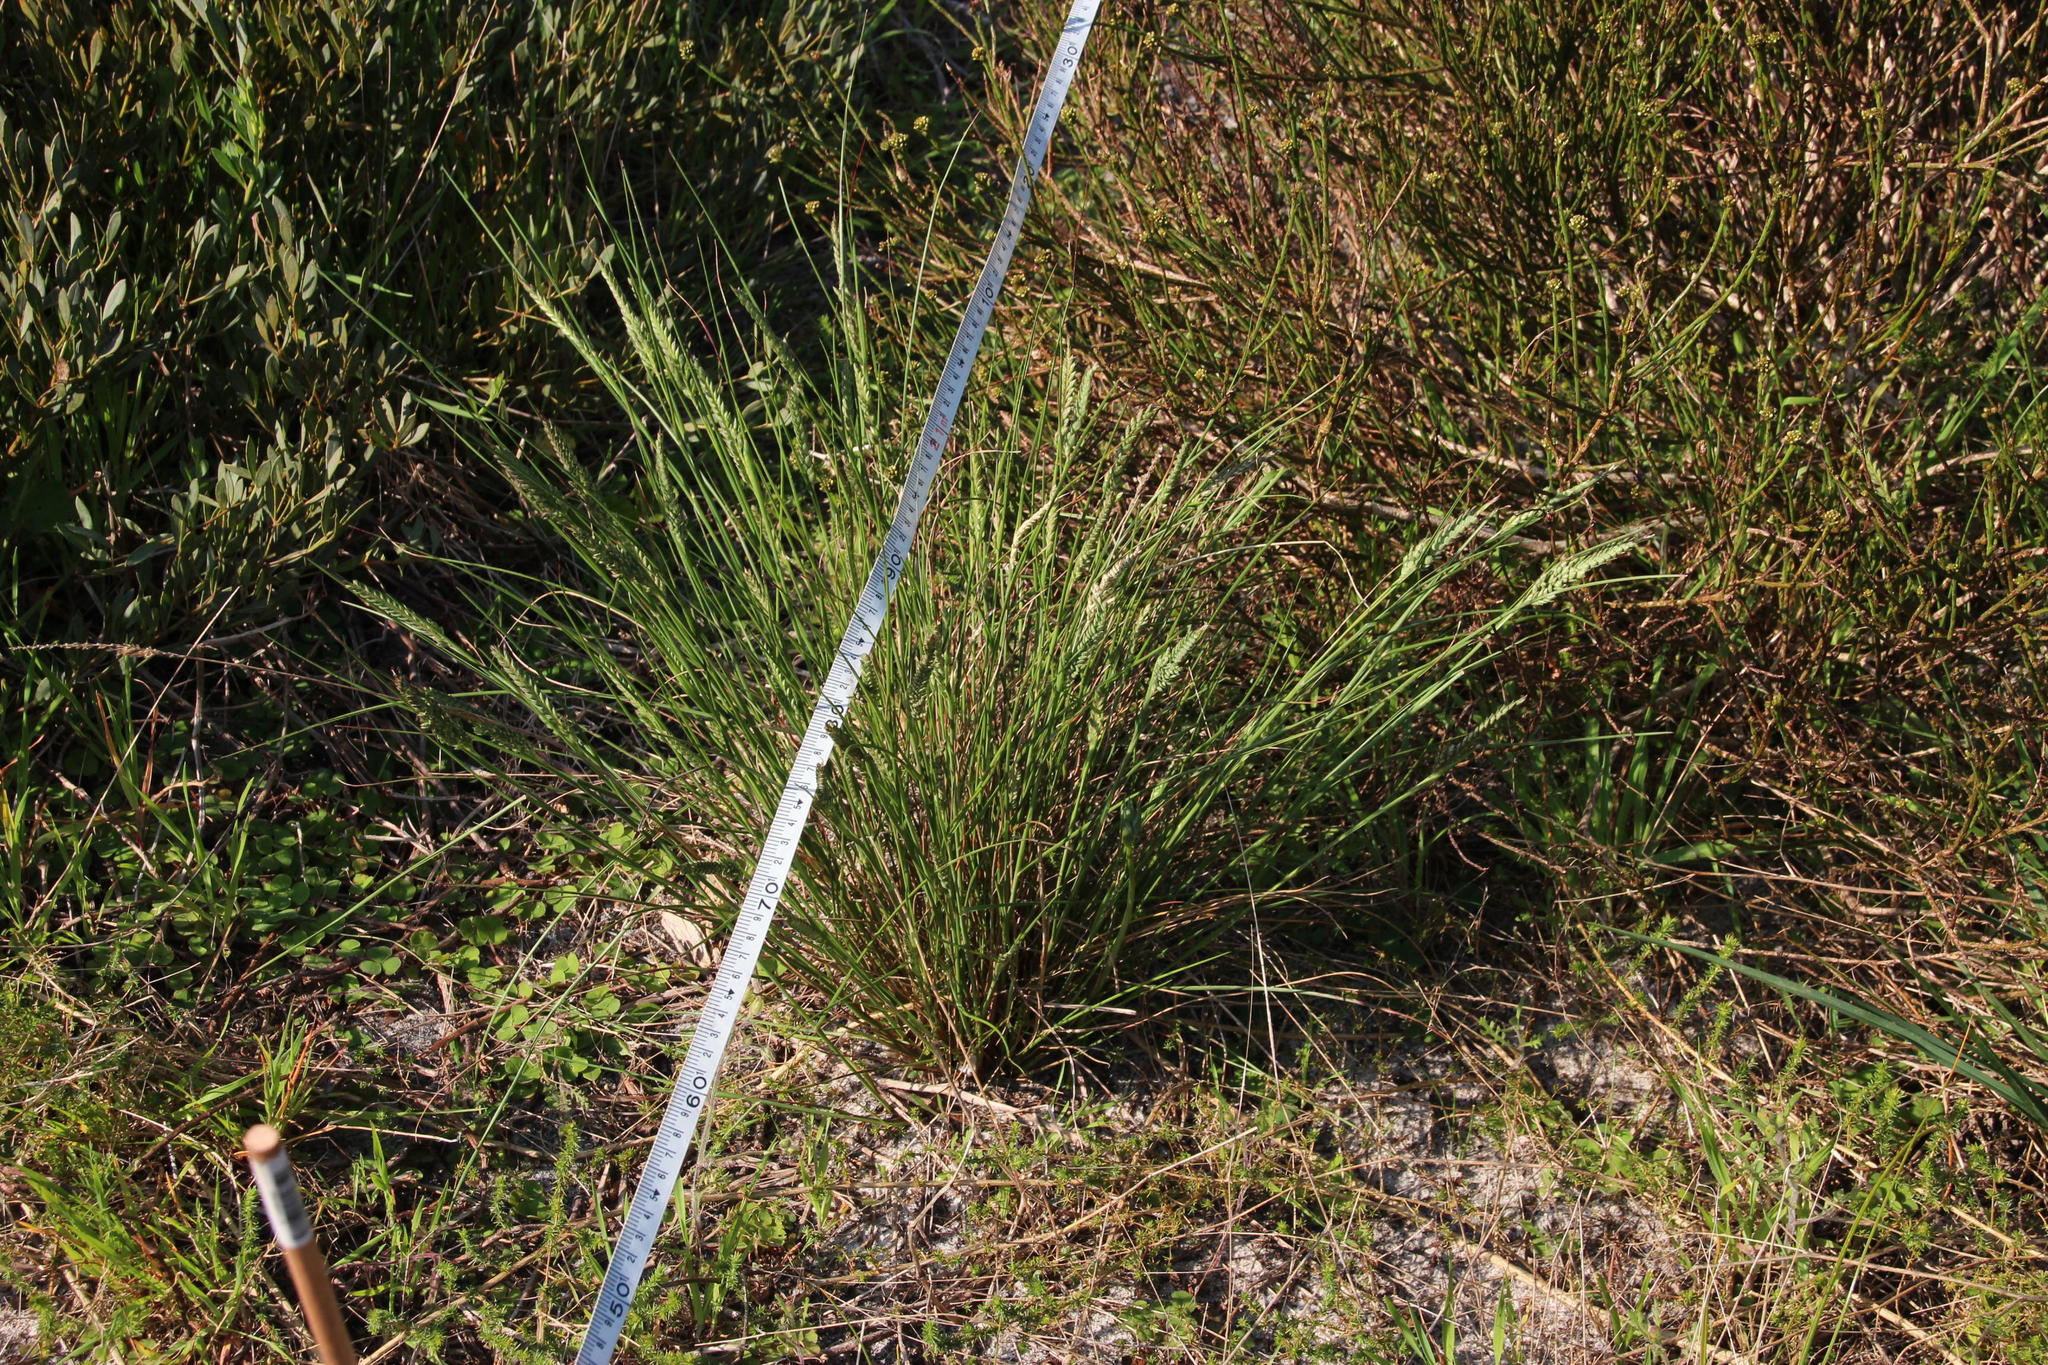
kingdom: Plantae
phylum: Tracheophyta
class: Liliopsida
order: Poales
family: Poaceae
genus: Tribolium
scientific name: Tribolium uniolae
